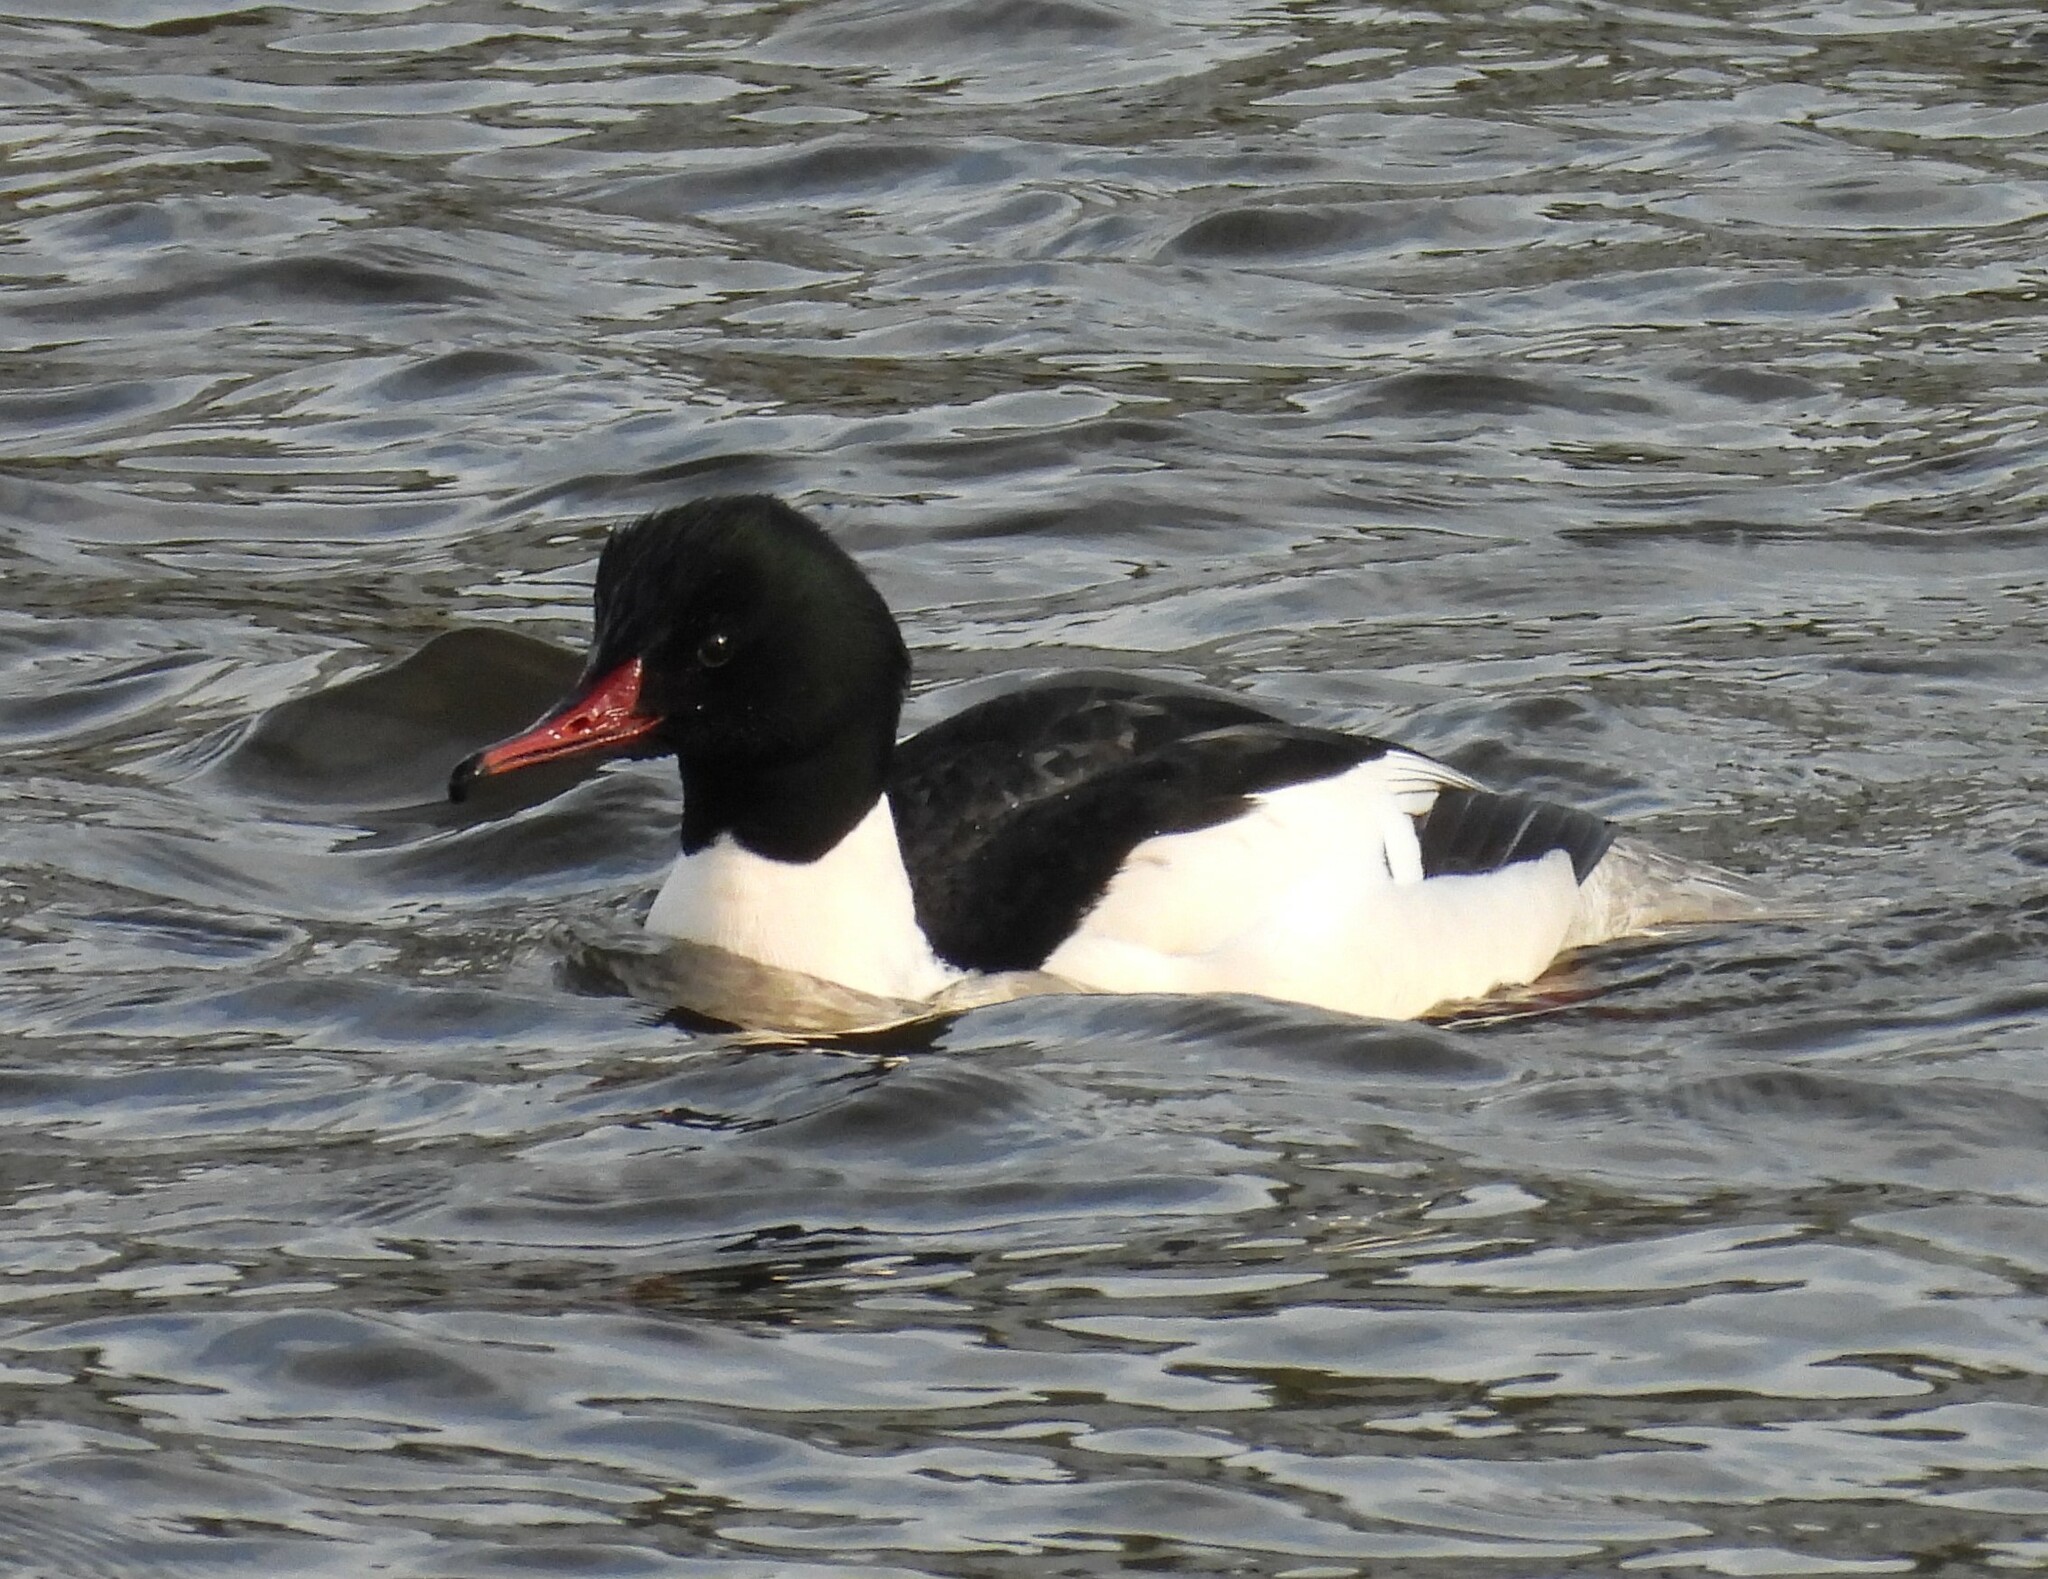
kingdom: Animalia
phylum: Chordata
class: Aves
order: Anseriformes
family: Anatidae
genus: Mergus
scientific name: Mergus merganser
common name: Common merganser
